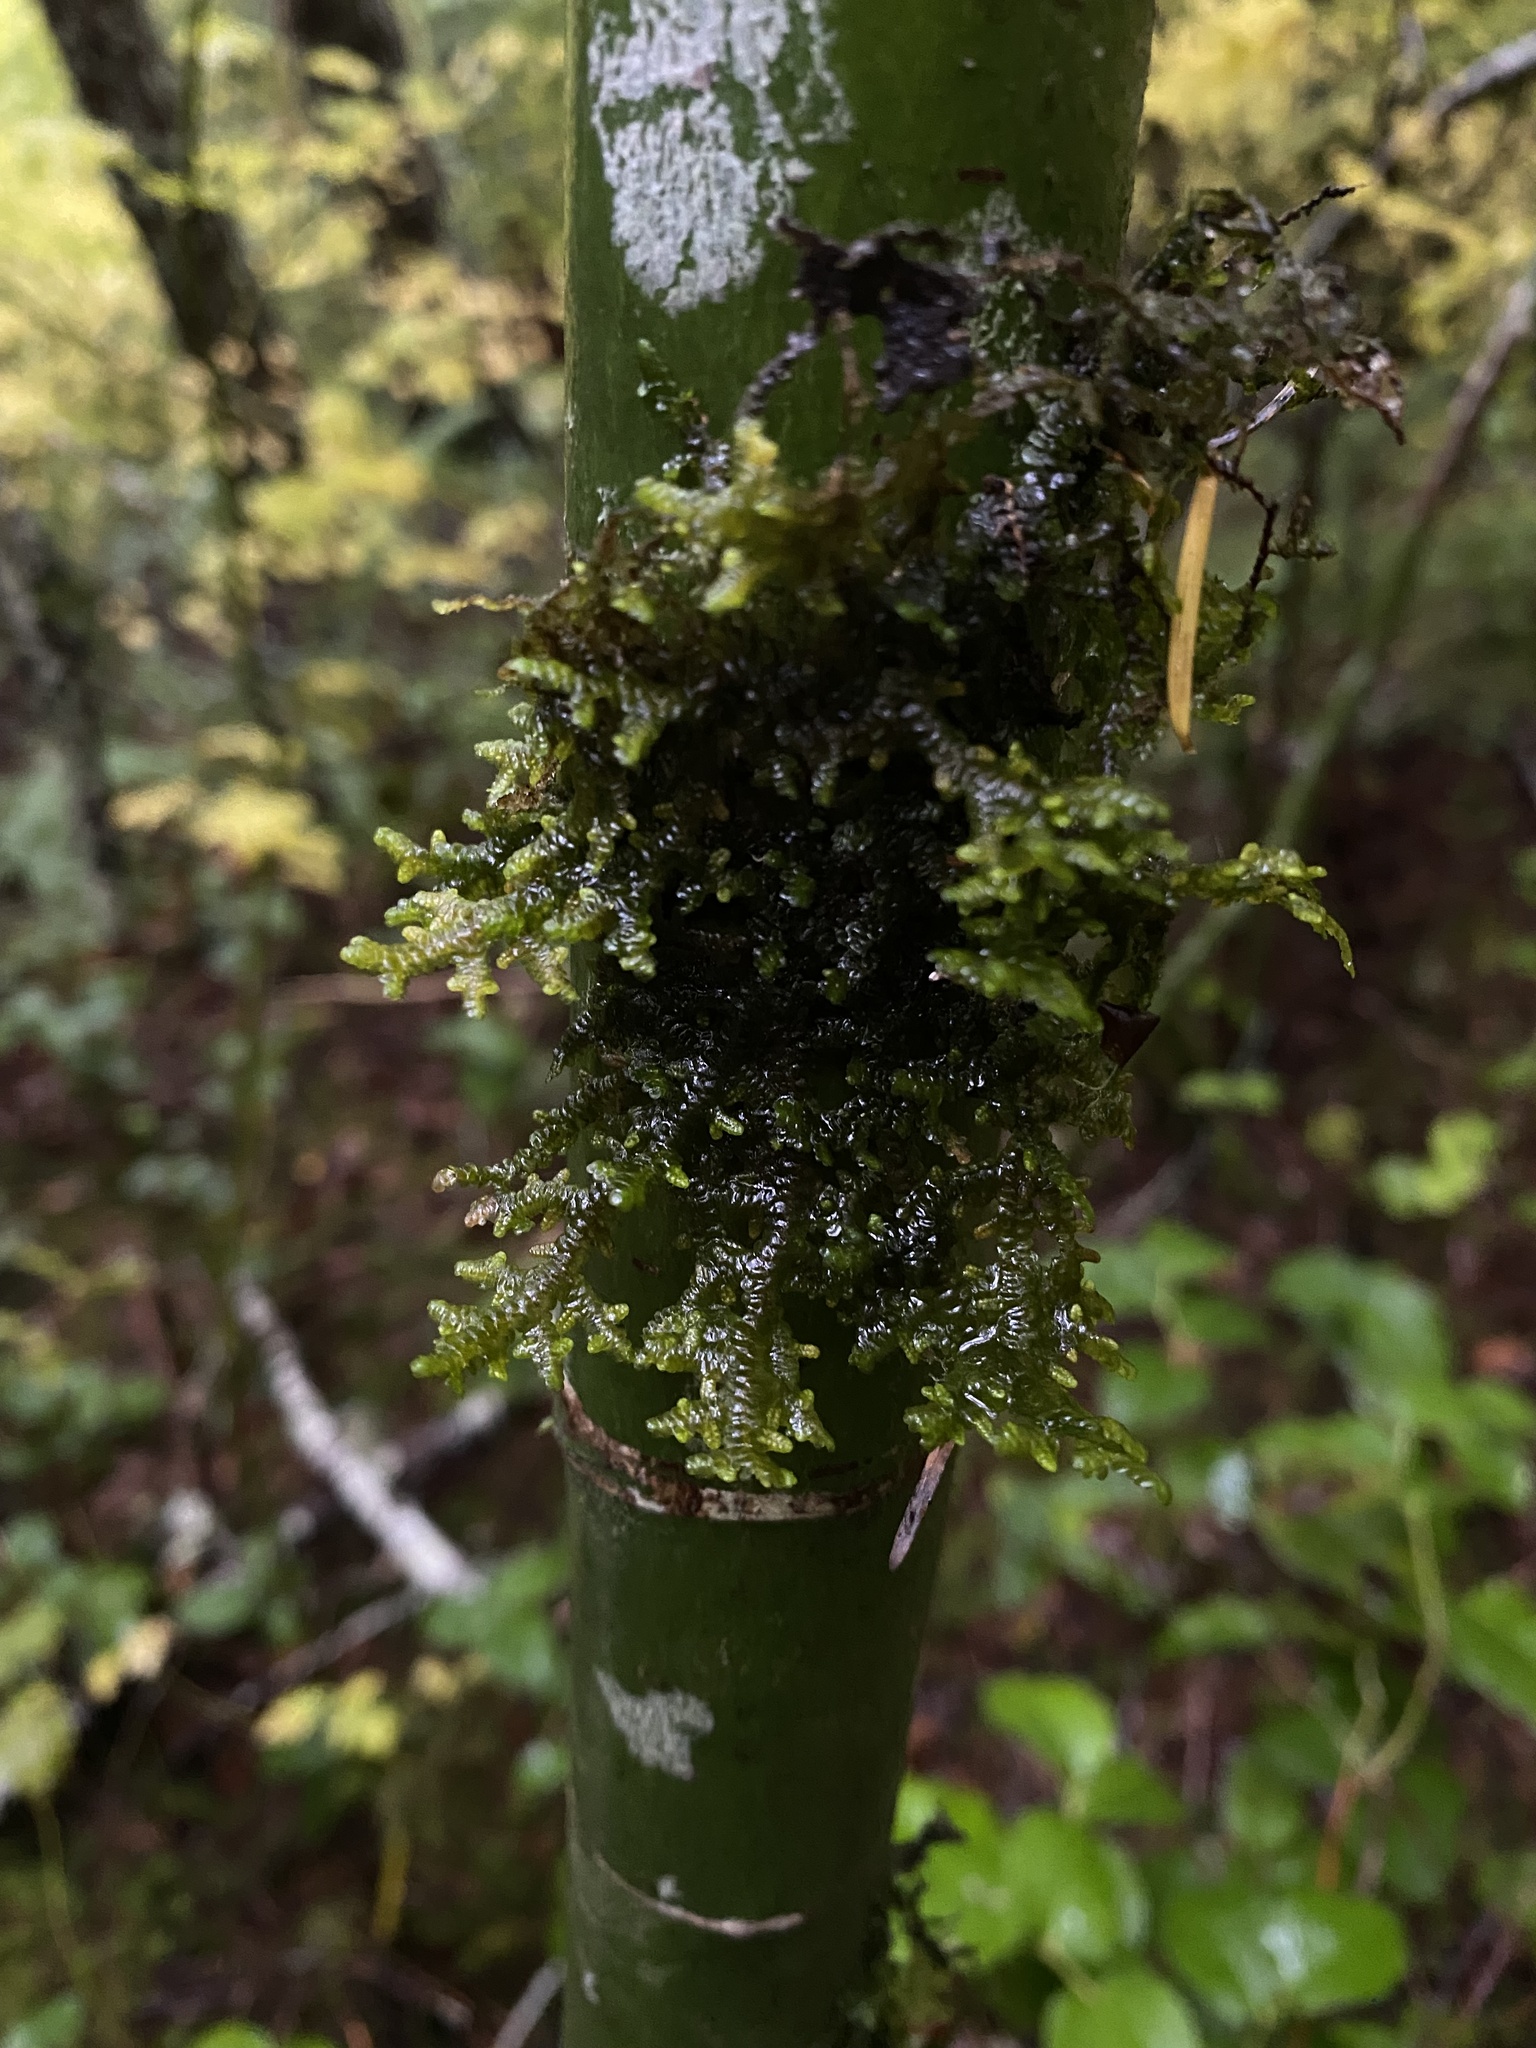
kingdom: Plantae
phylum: Marchantiophyta
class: Jungermanniopsida
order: Porellales
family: Porellaceae
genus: Porella
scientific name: Porella navicularis
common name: Tree ruffle liverwort
